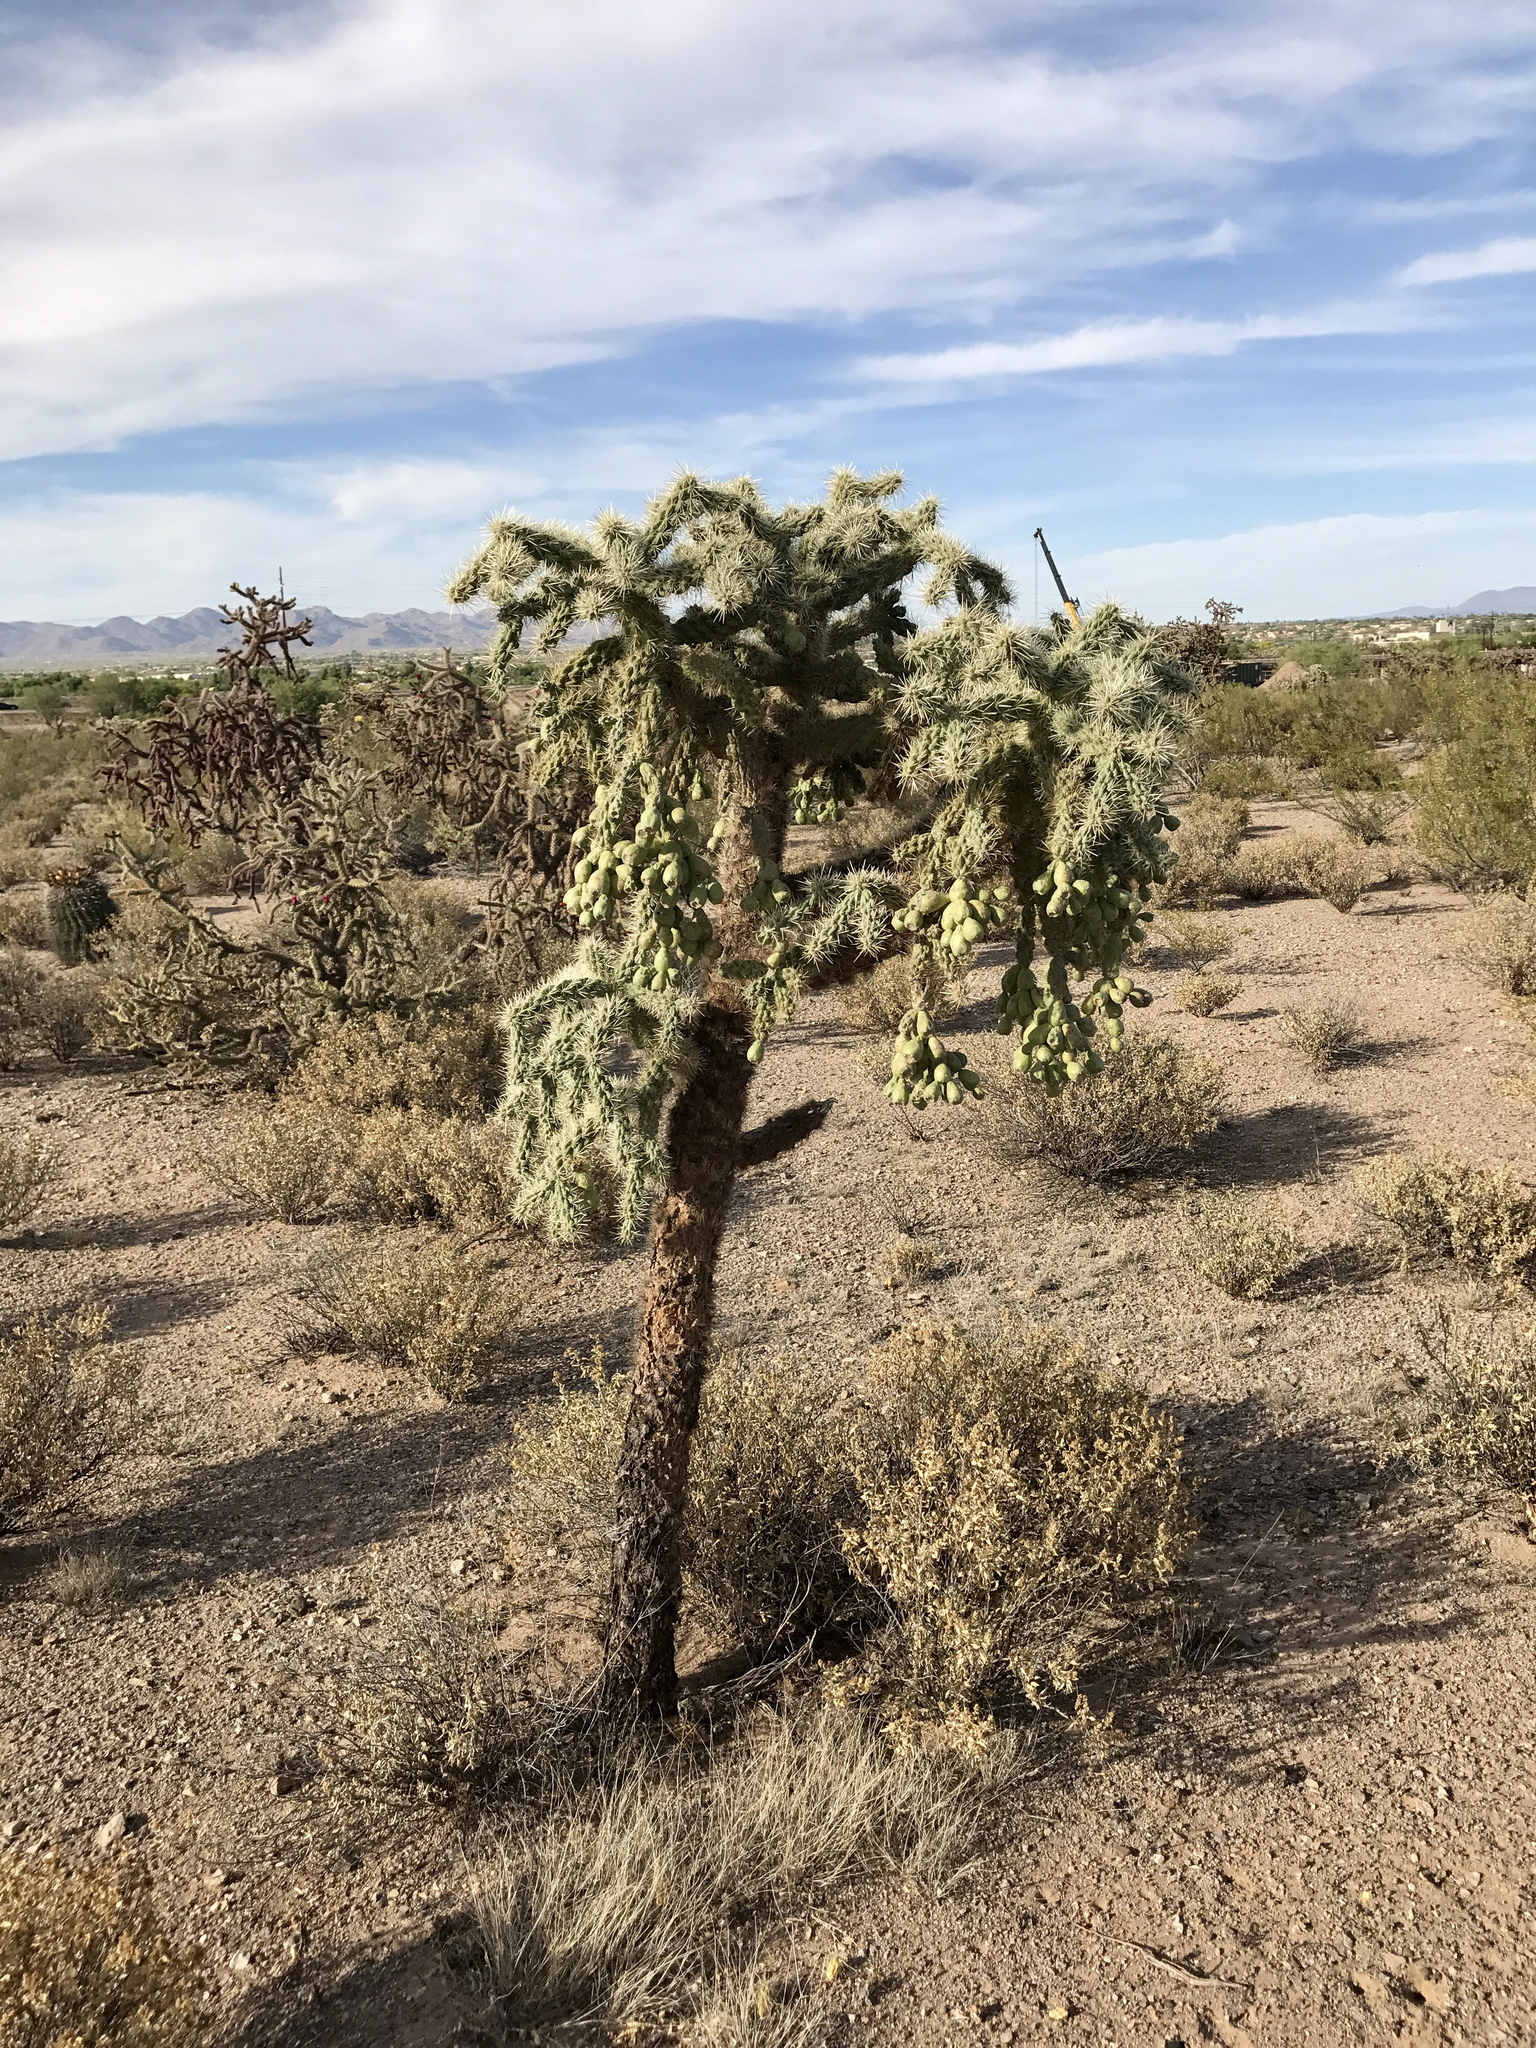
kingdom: Plantae
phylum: Tracheophyta
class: Magnoliopsida
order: Caryophyllales
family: Cactaceae
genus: Cylindropuntia
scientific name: Cylindropuntia fulgida
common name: Jumping cholla
